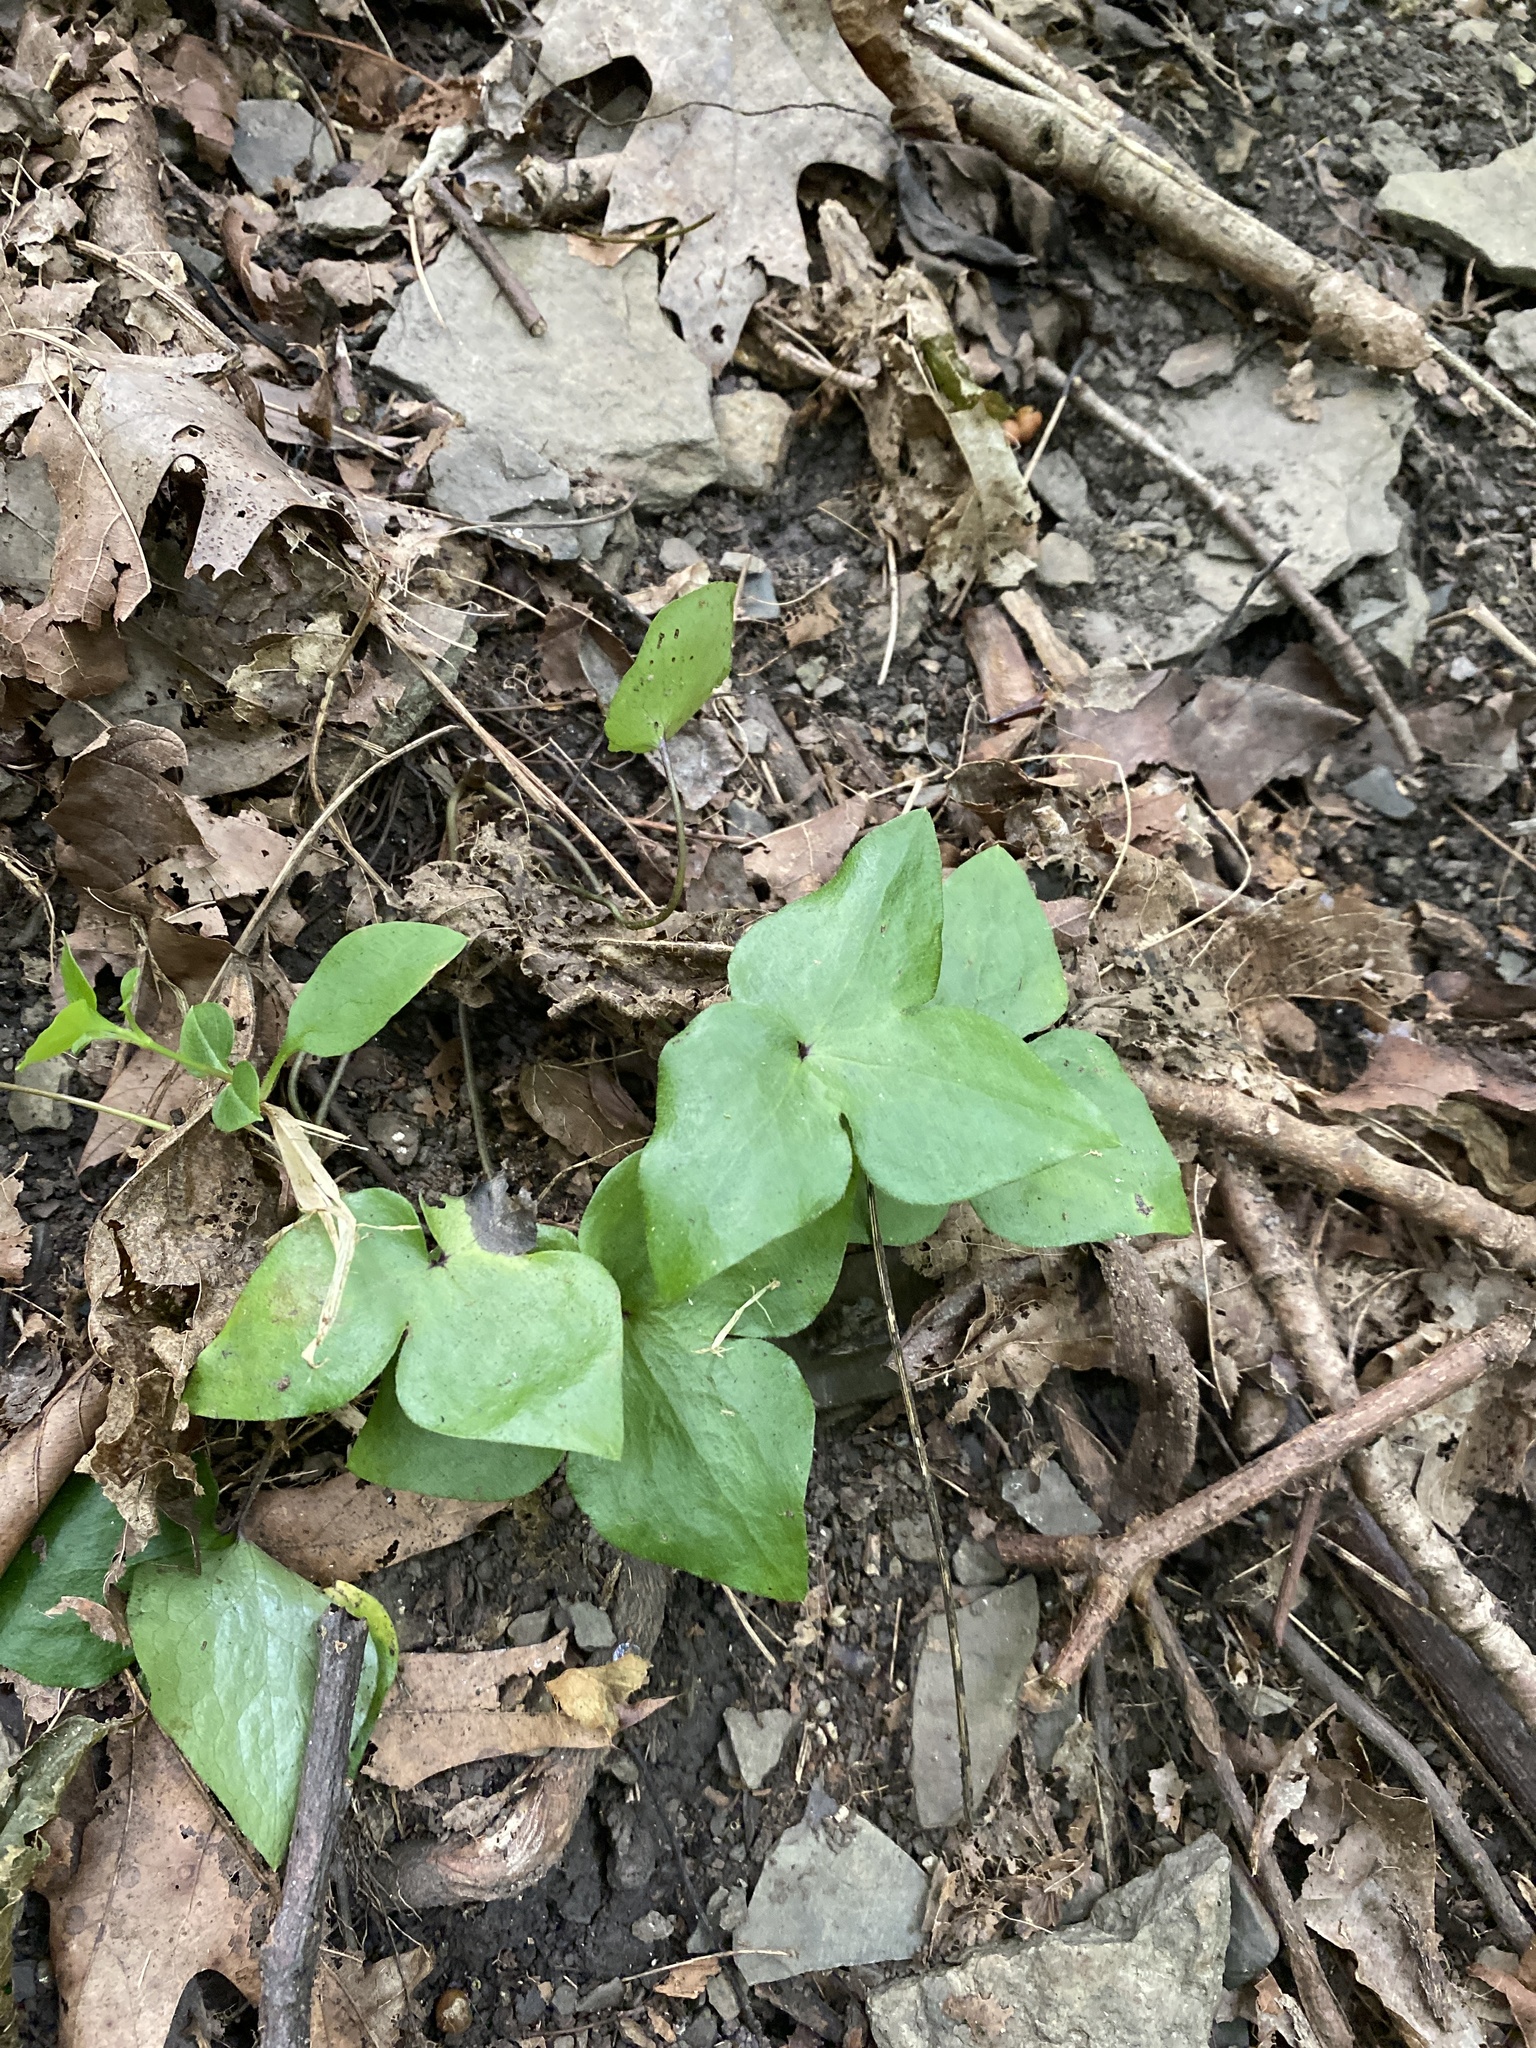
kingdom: Plantae
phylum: Tracheophyta
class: Magnoliopsida
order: Ranunculales
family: Ranunculaceae
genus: Hepatica
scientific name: Hepatica acutiloba
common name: Sharp-lobed hepatica
